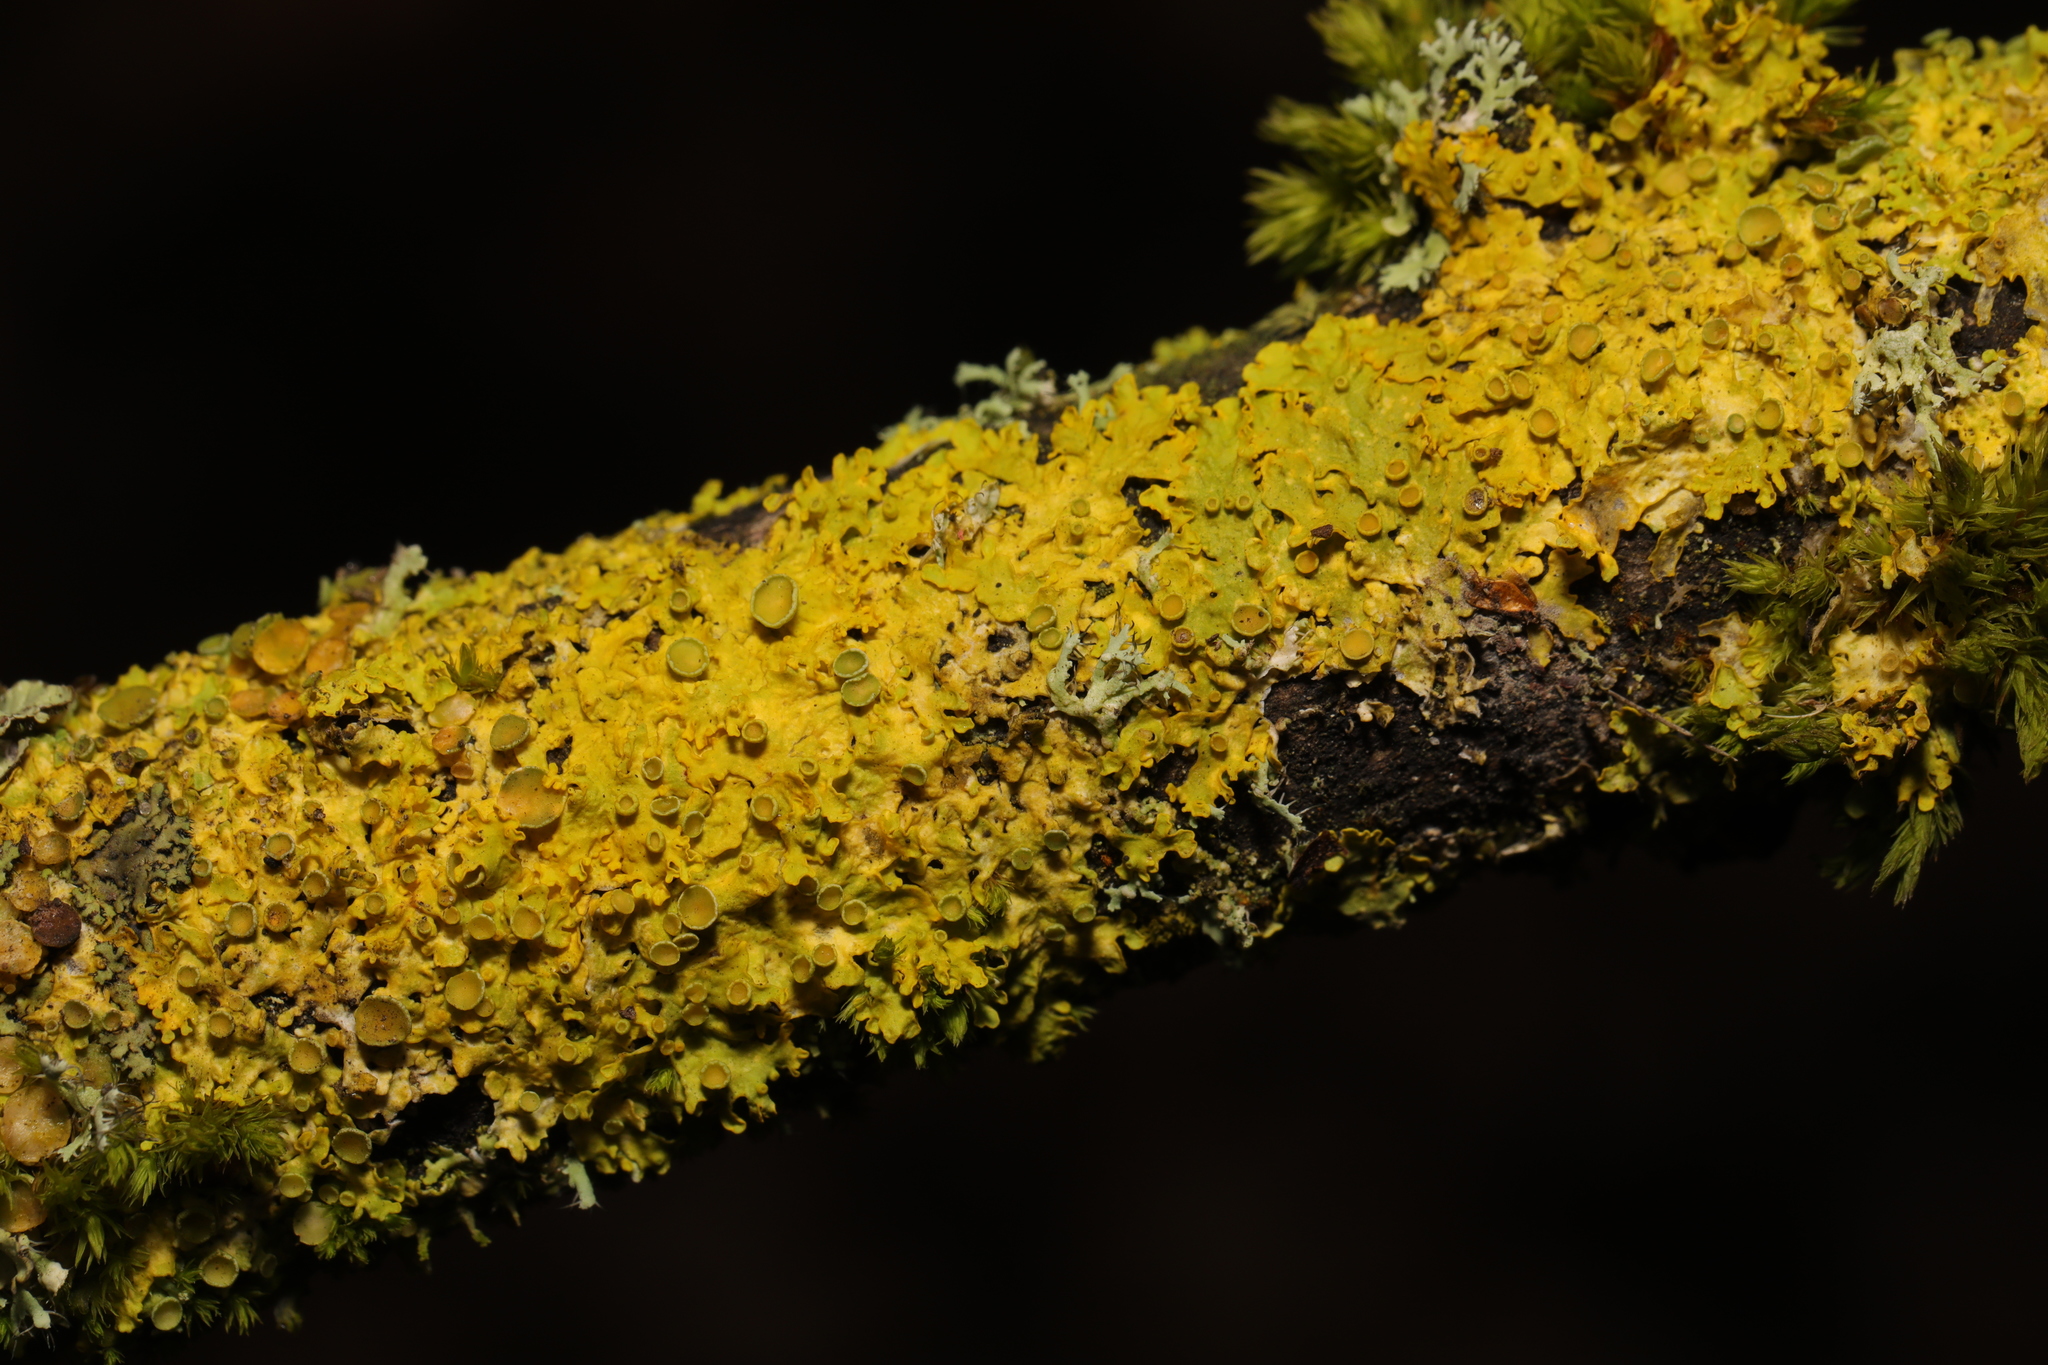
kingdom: Fungi
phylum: Ascomycota
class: Lecanoromycetes
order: Teloschistales
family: Teloschistaceae
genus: Xanthoria
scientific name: Xanthoria parietina
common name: Common orange lichen
